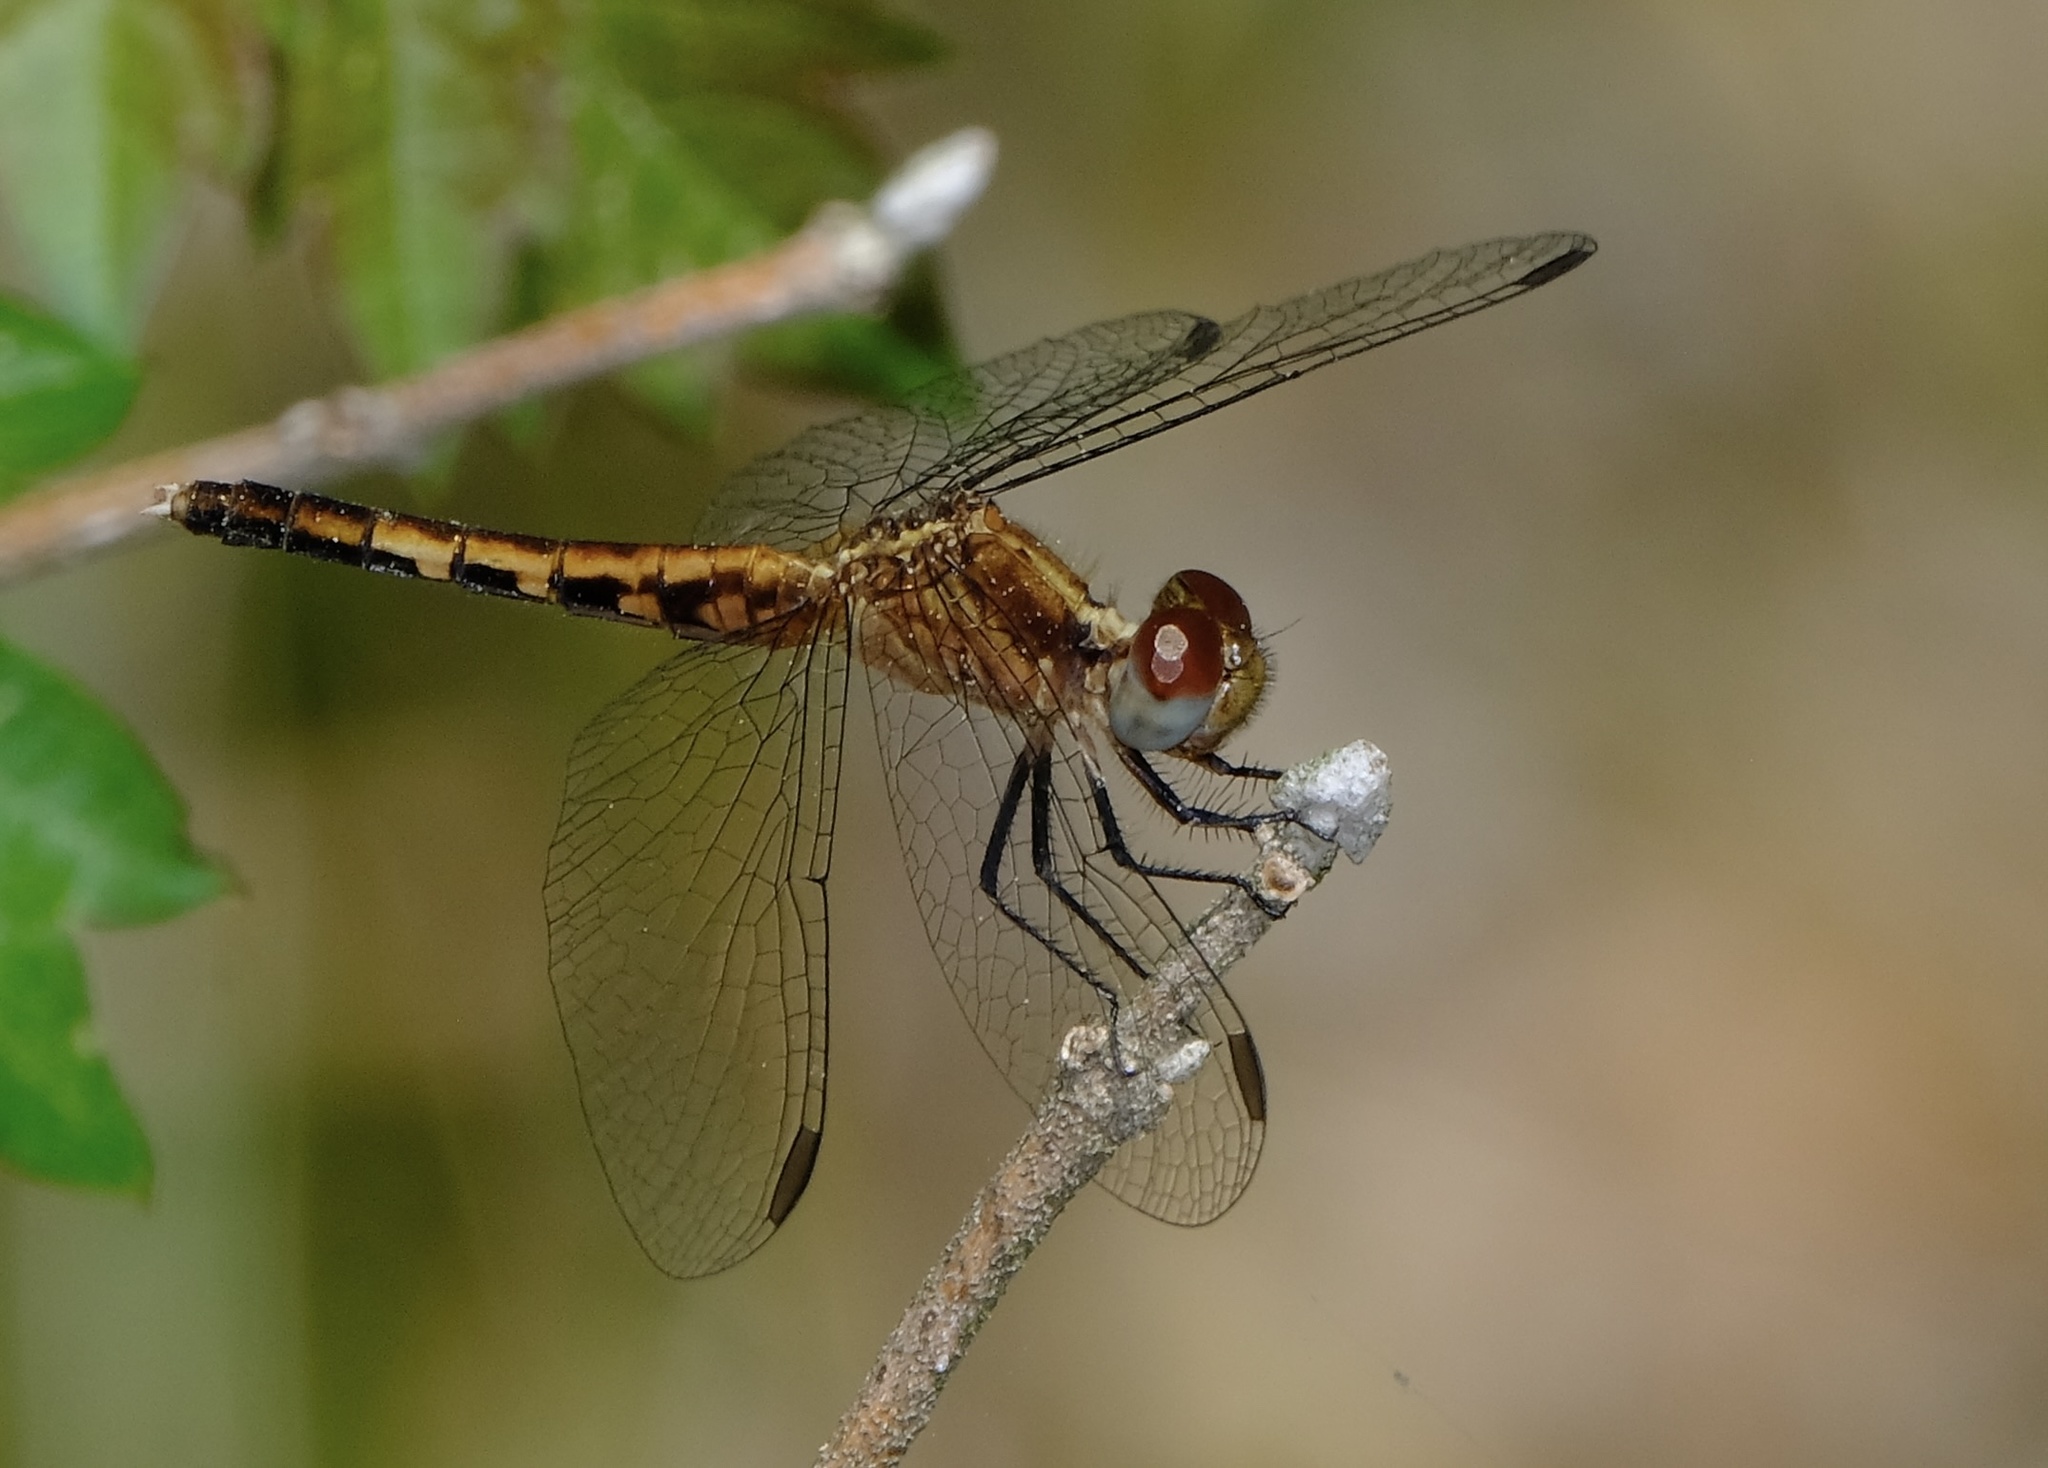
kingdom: Animalia
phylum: Arthropoda
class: Insecta
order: Odonata
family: Libellulidae
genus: Erythrodiplax
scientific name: Erythrodiplax minuscula
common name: Little blue dragonlet
